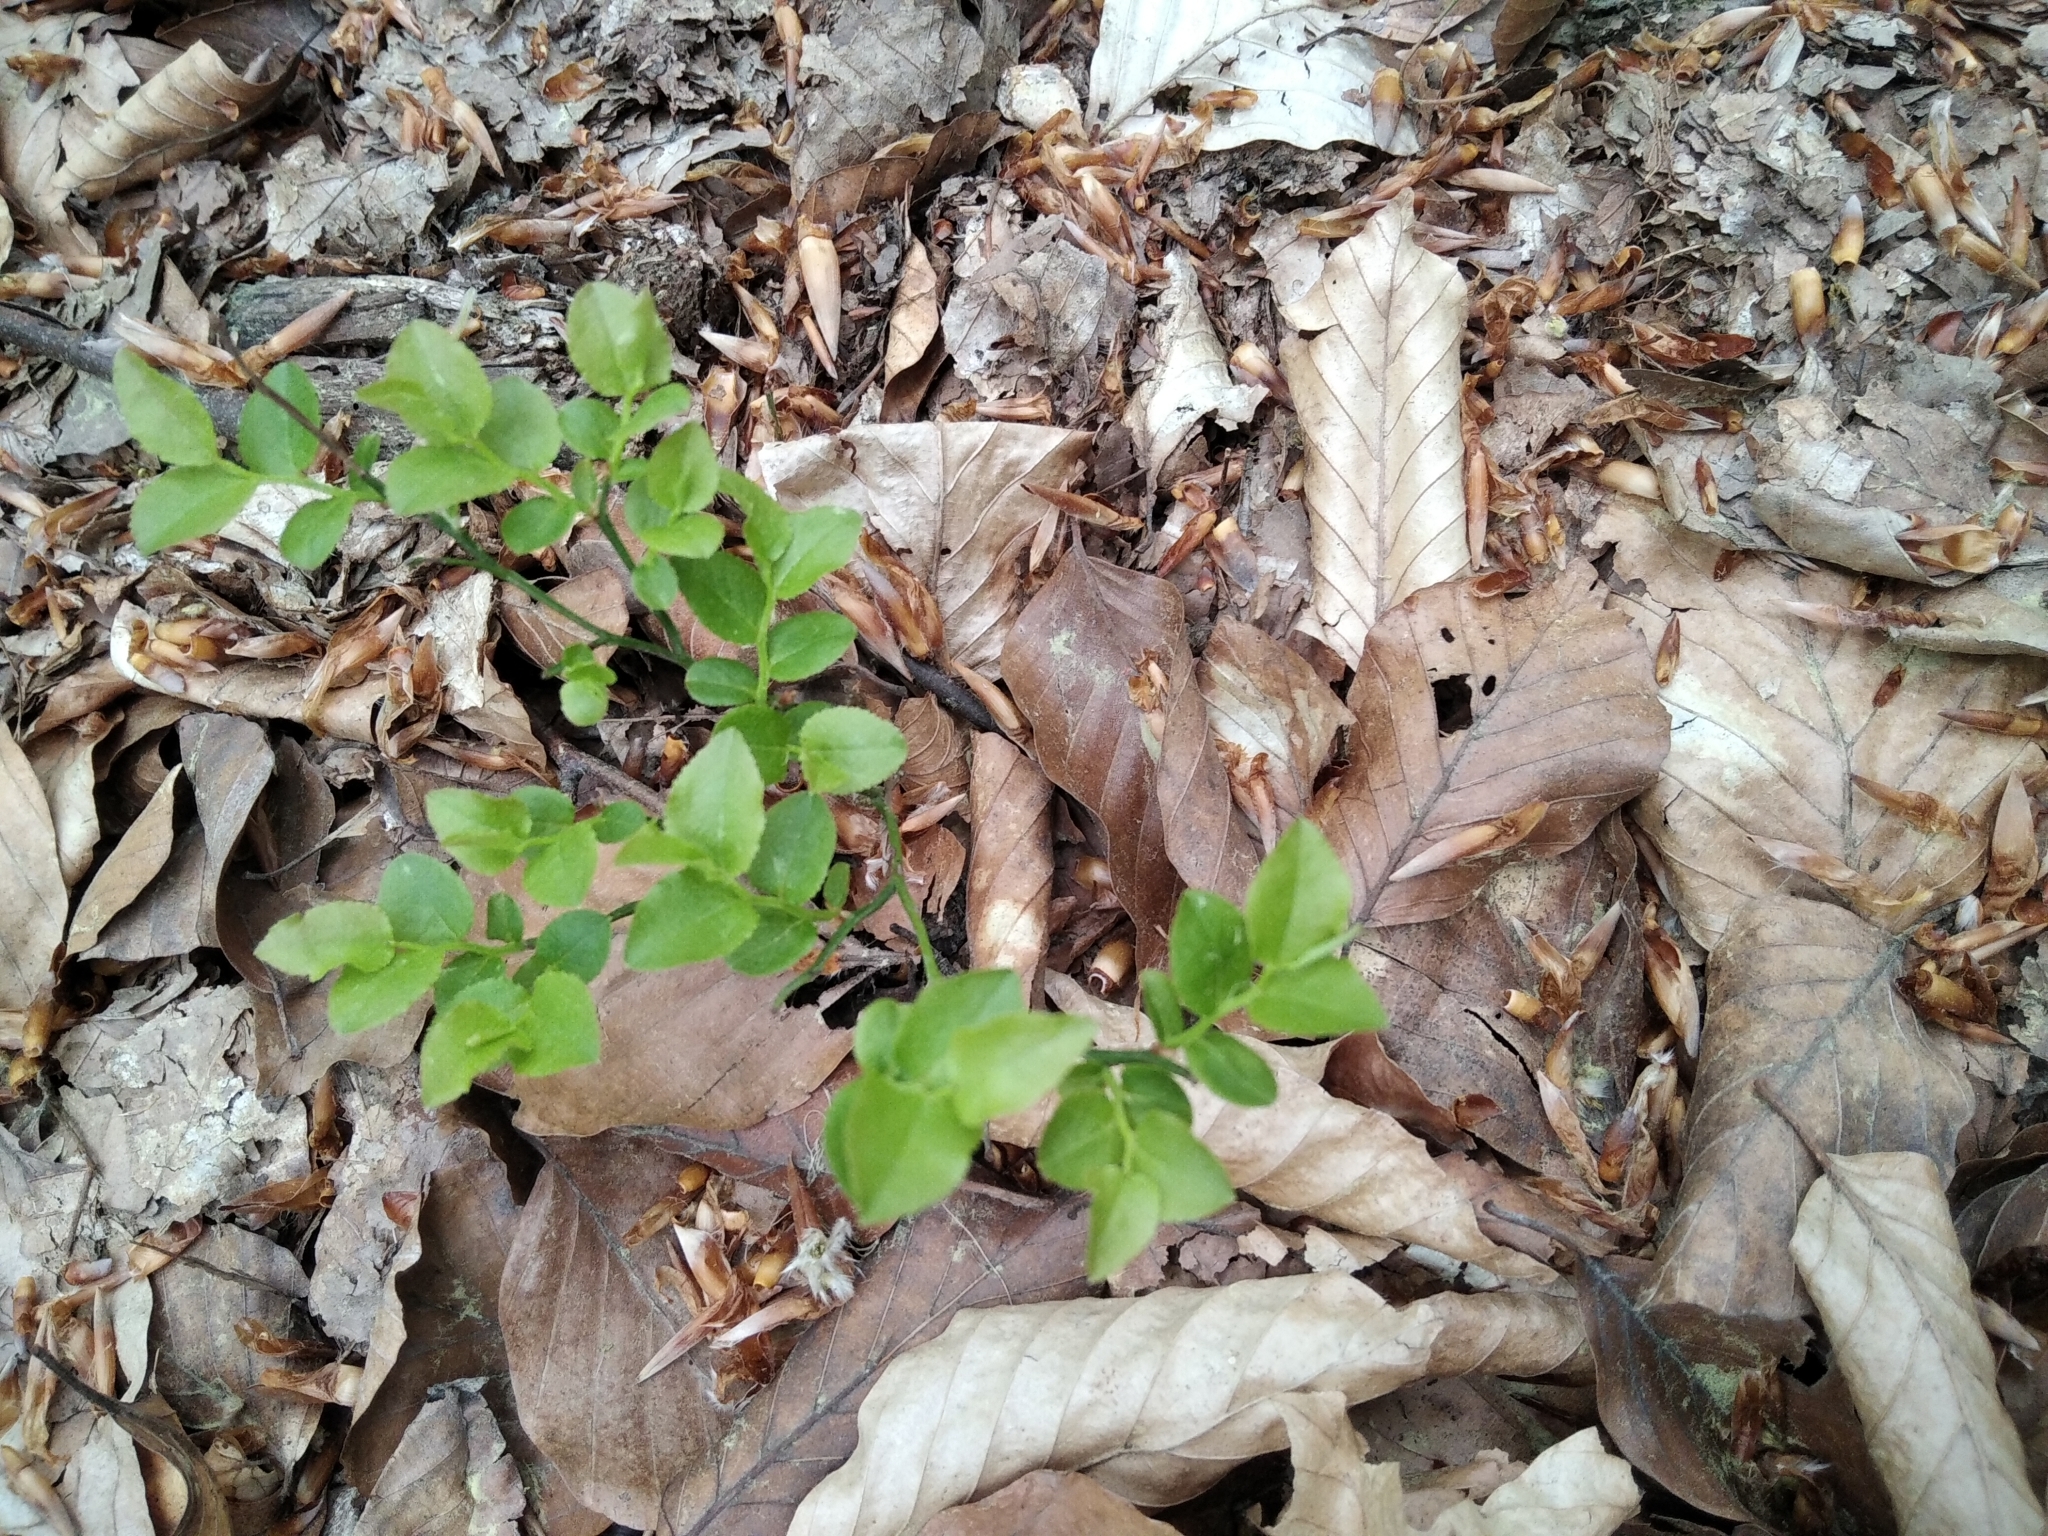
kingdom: Plantae
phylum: Tracheophyta
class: Magnoliopsida
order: Ericales
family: Ericaceae
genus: Vaccinium
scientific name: Vaccinium myrtillus
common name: Bilberry
